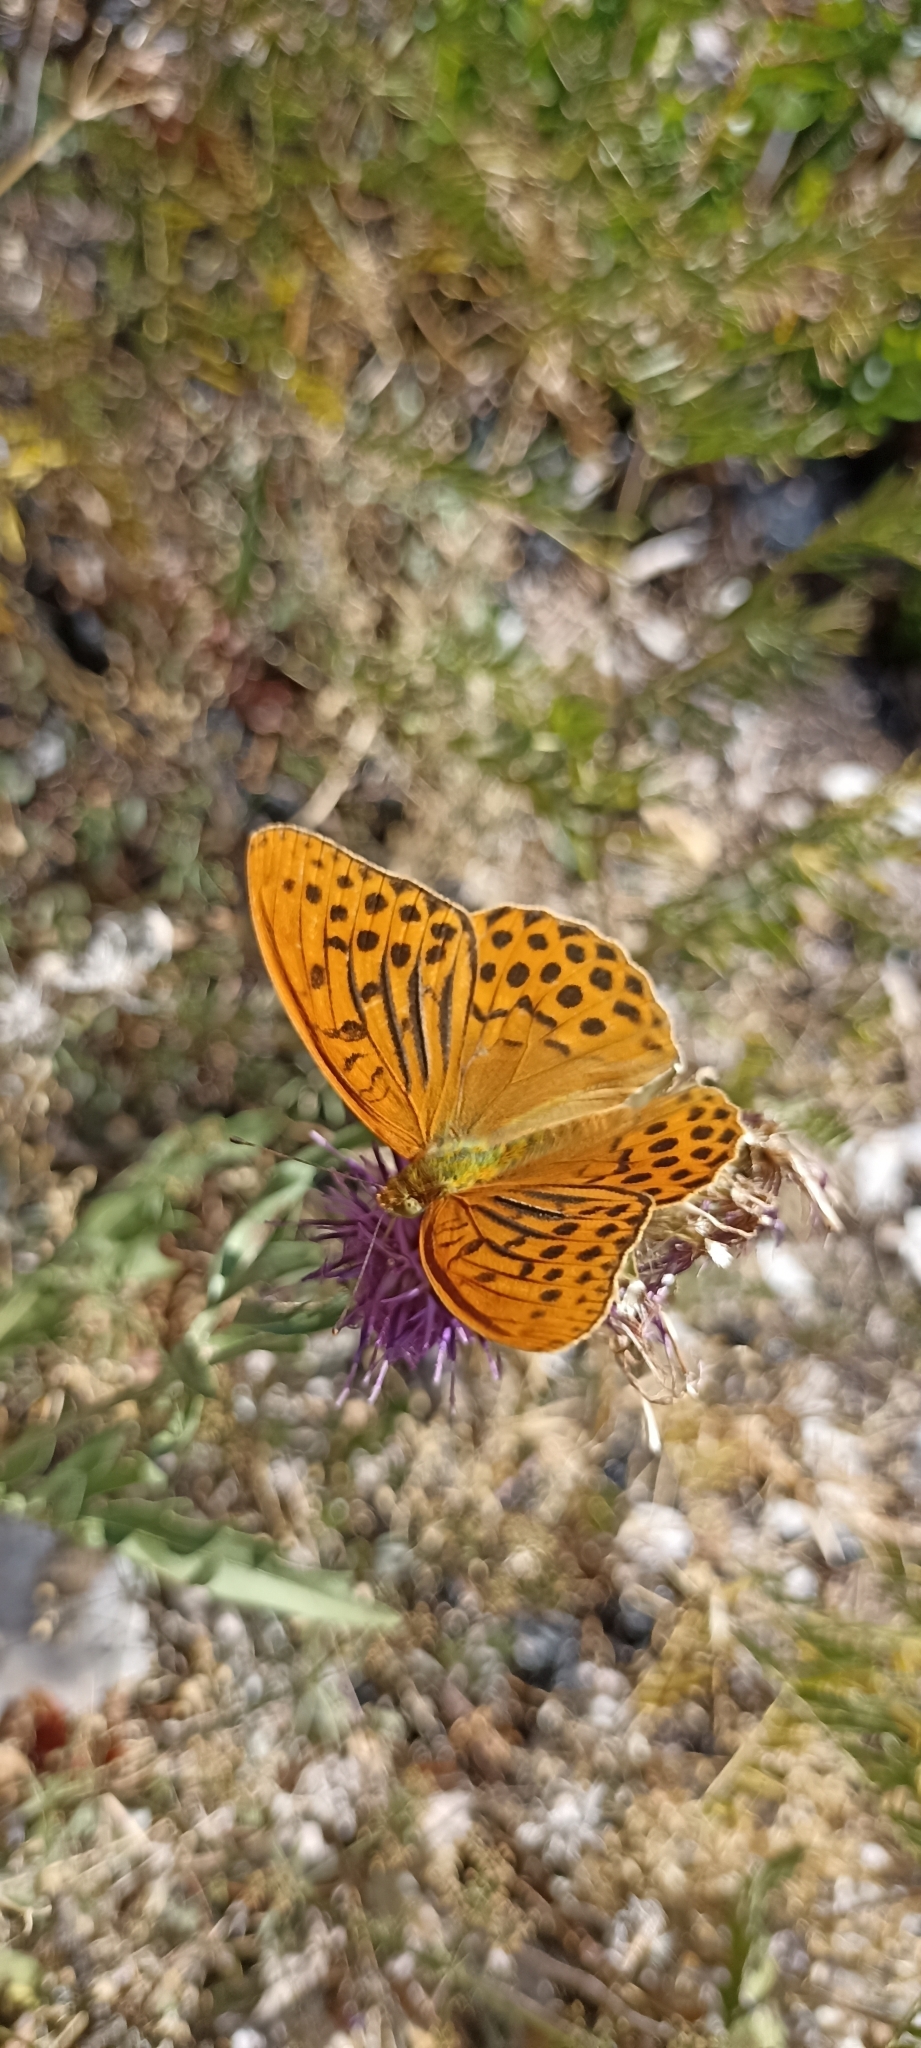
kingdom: Animalia
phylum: Arthropoda
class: Insecta
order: Lepidoptera
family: Nymphalidae
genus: Argynnis
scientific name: Argynnis paphia
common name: Silver-washed fritillary
